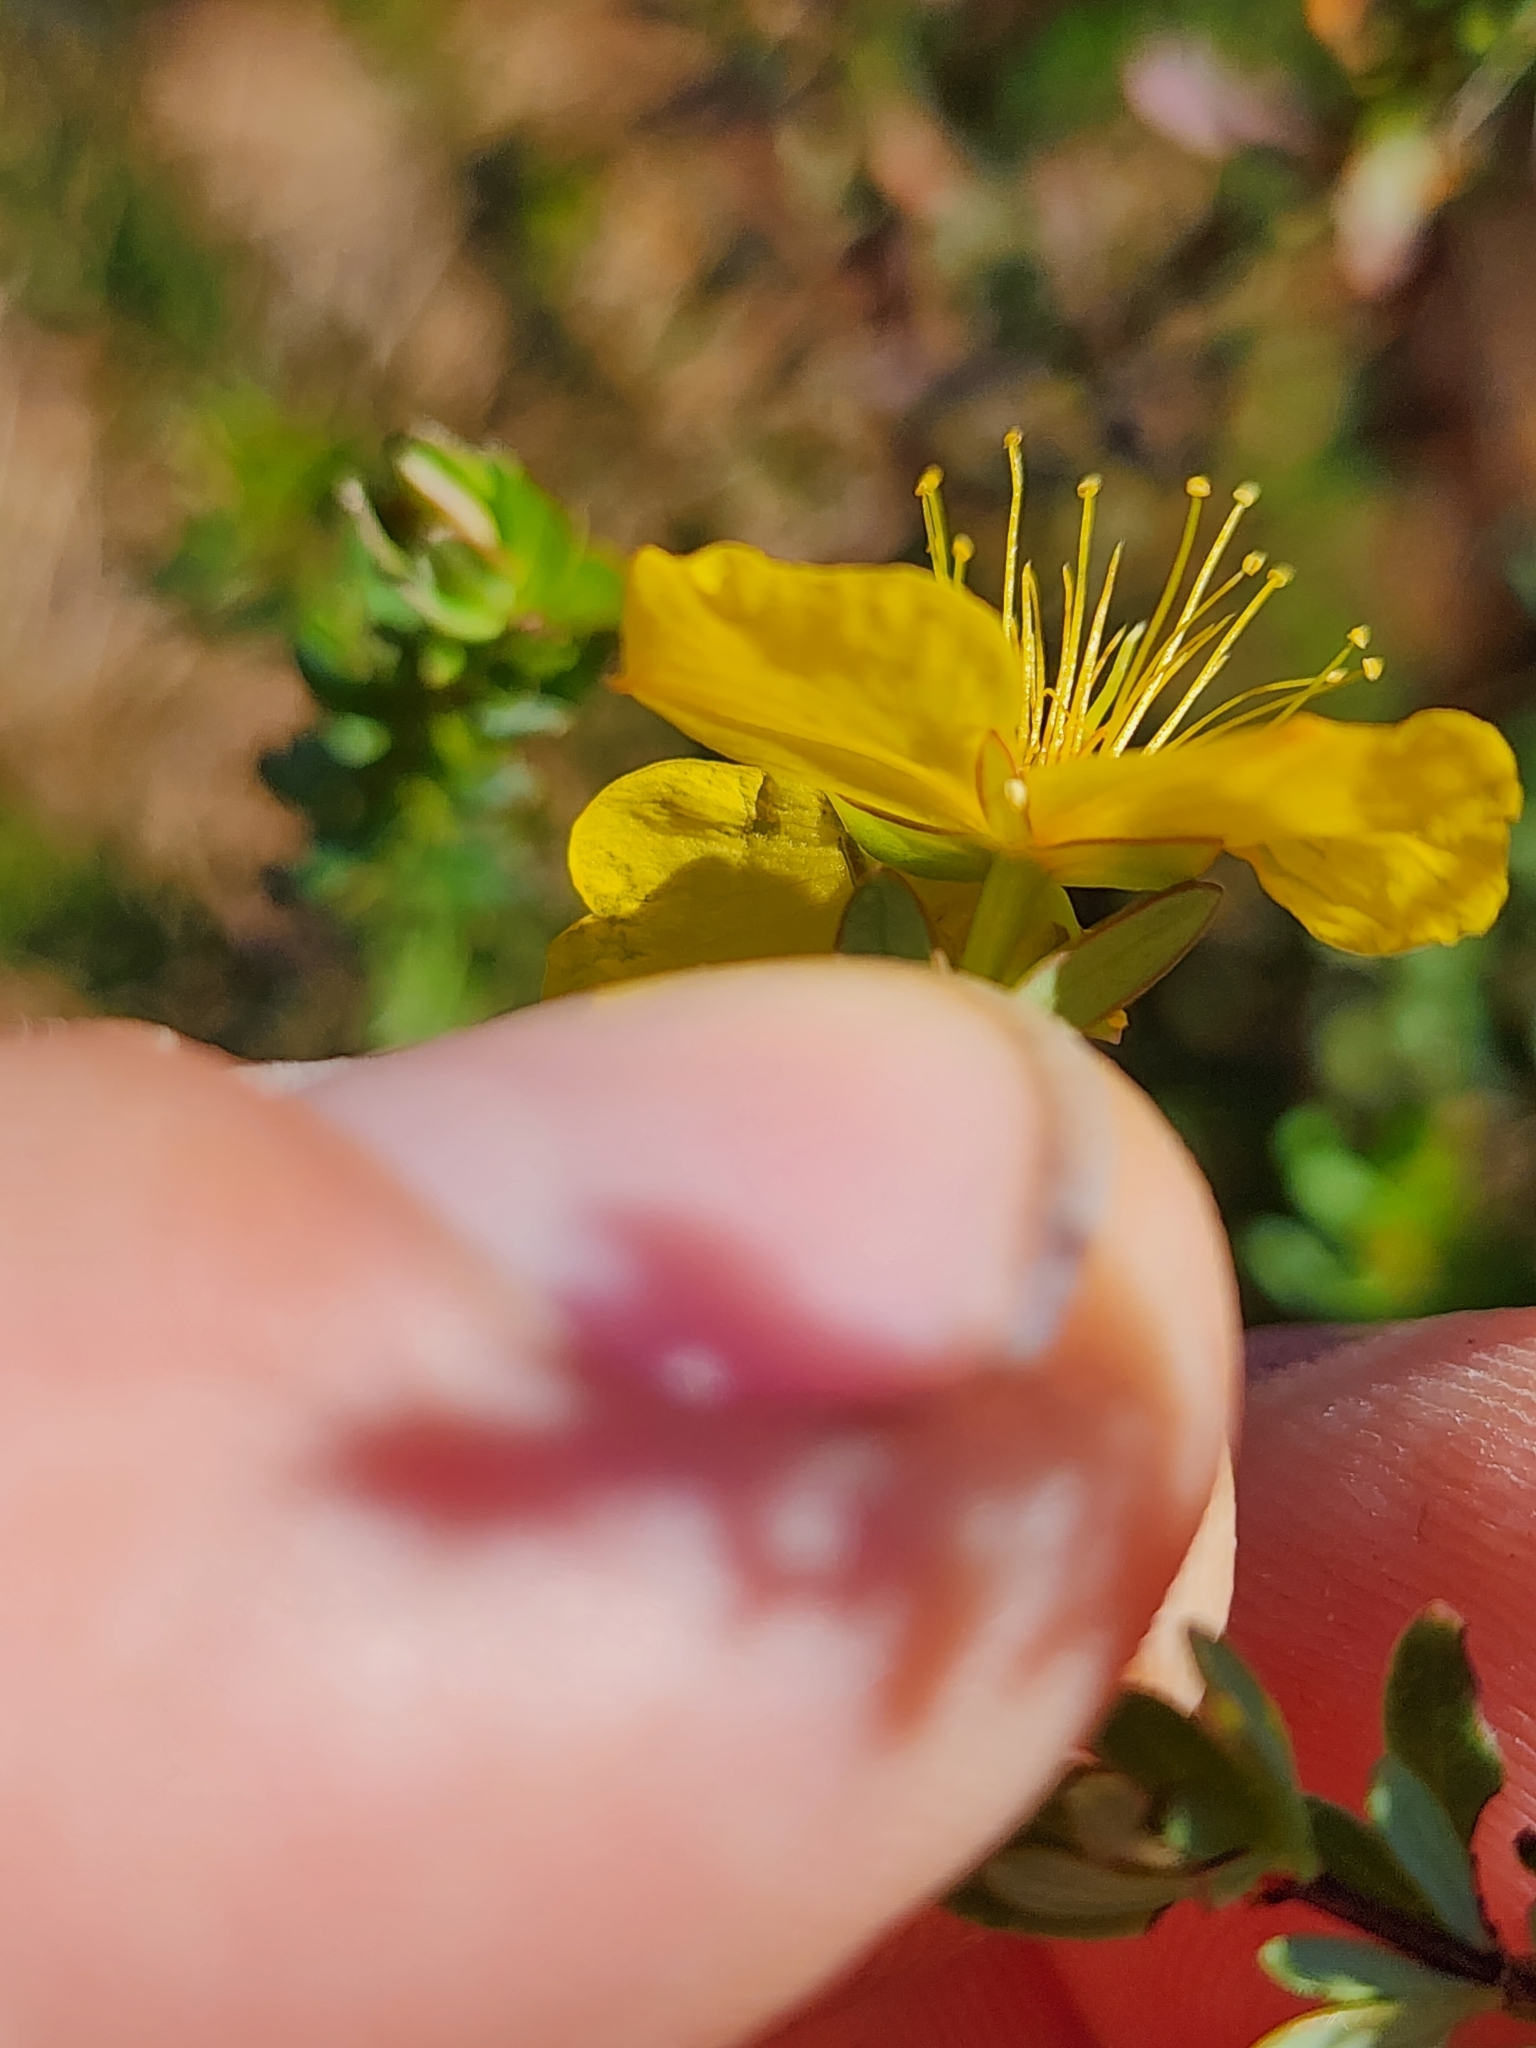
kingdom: Plantae
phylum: Tracheophyta
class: Magnoliopsida
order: Malpighiales
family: Hypericaceae
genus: Hypericum
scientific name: Hypericum microsepalum
